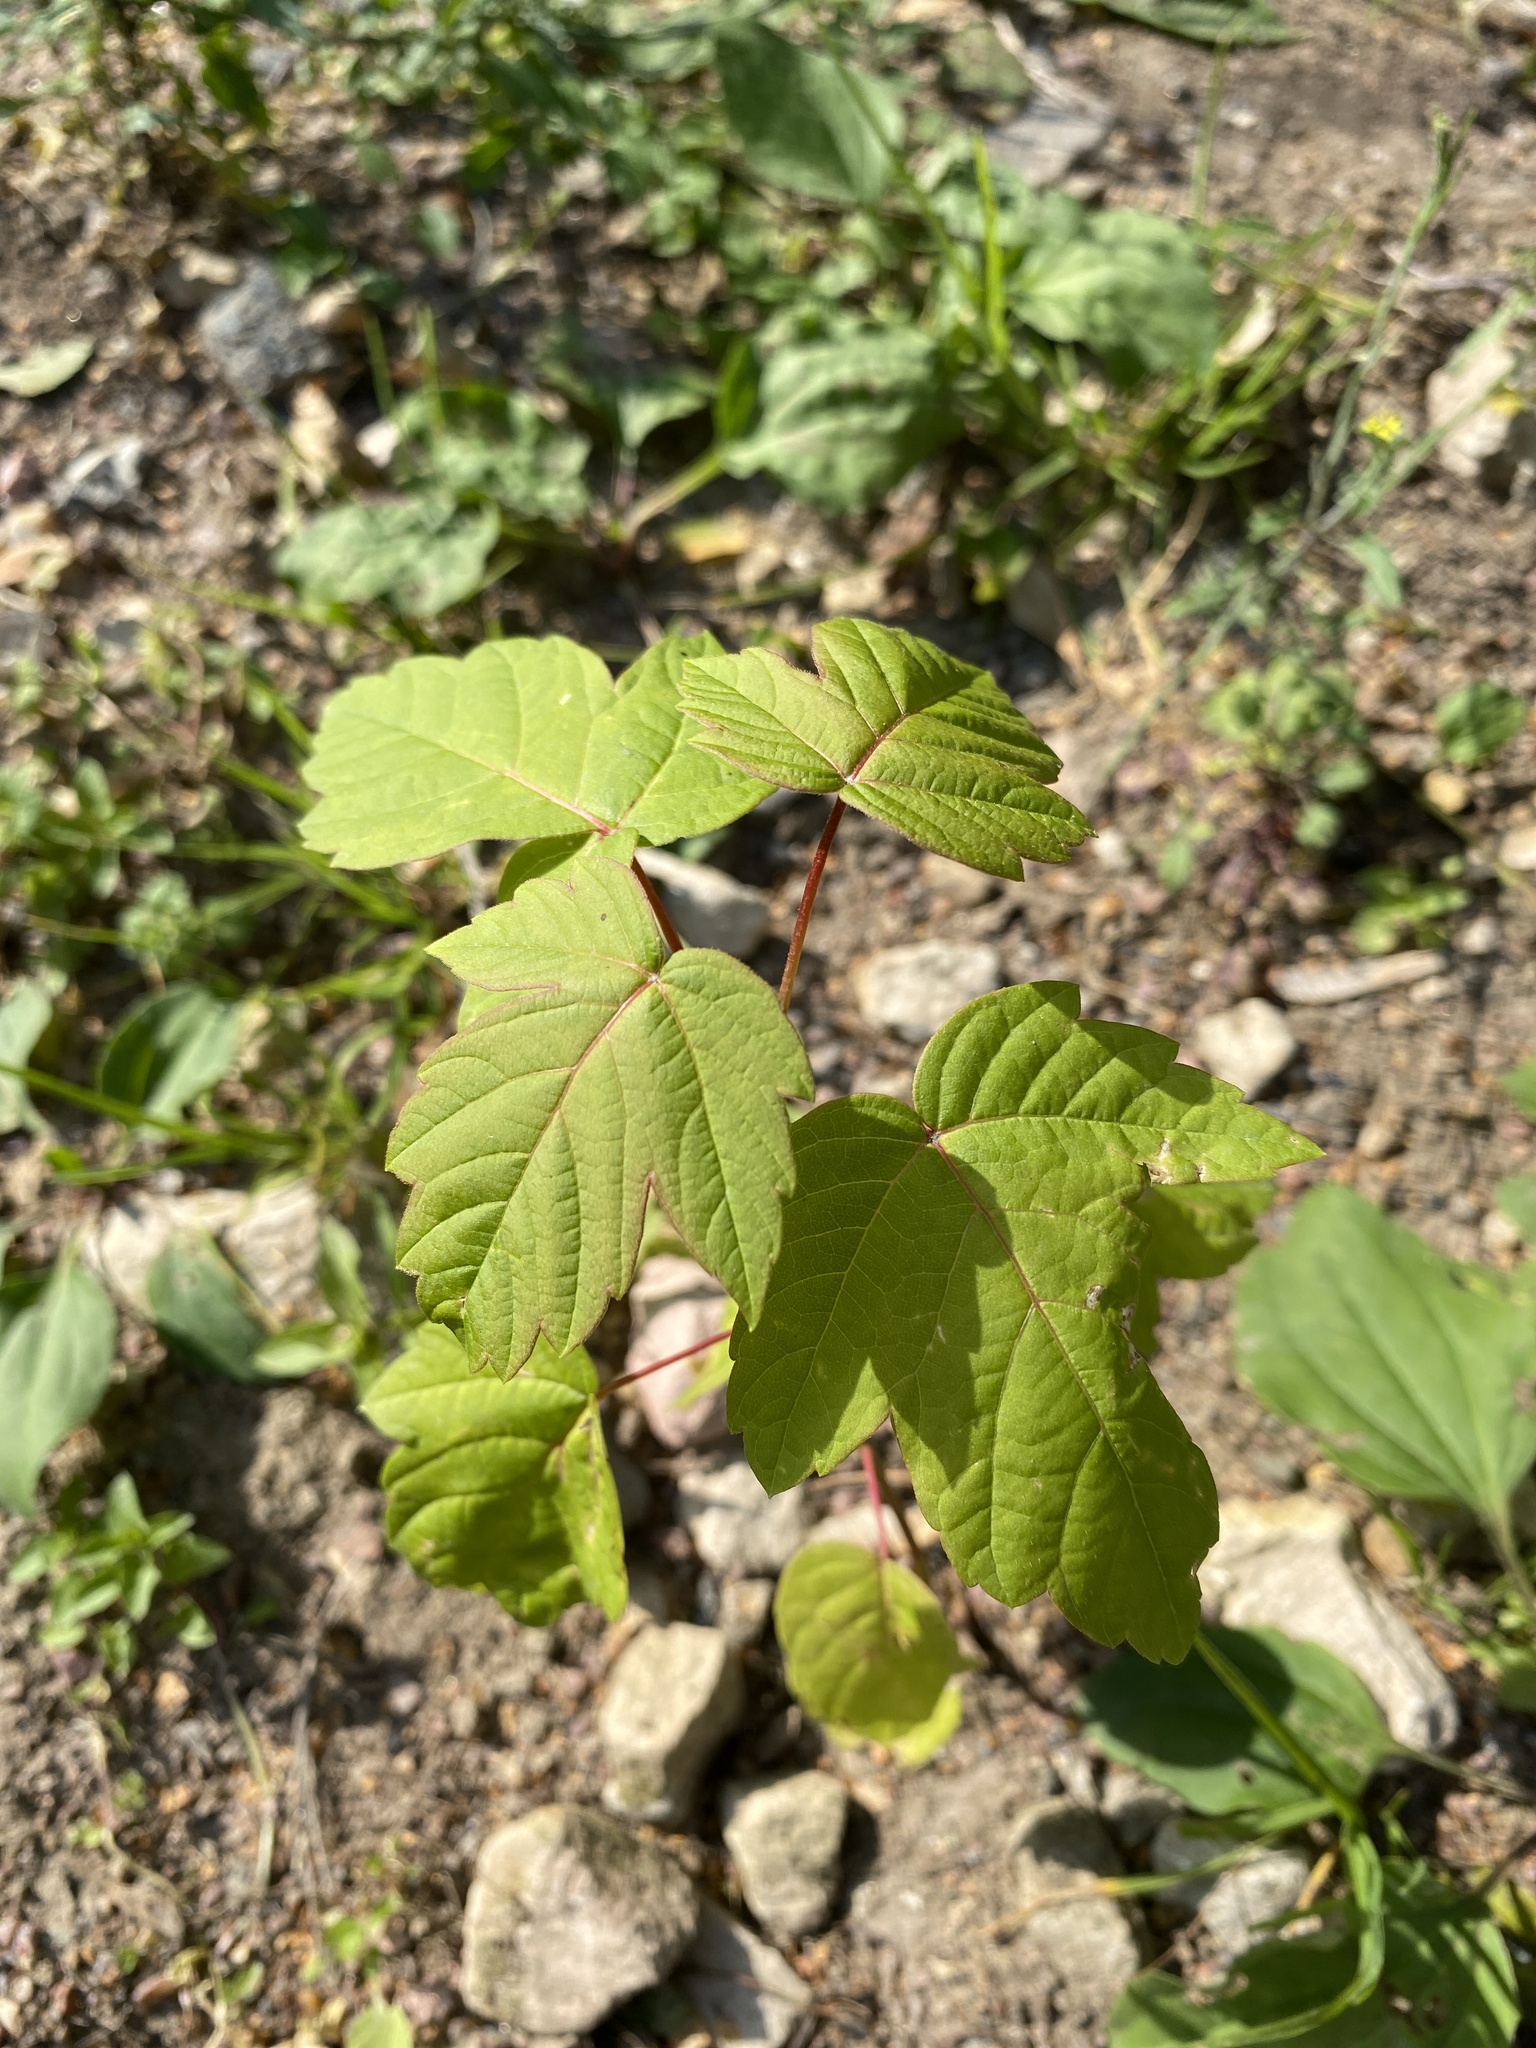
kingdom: Plantae
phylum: Tracheophyta
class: Magnoliopsida
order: Sapindales
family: Sapindaceae
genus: Acer
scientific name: Acer negundo
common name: Ashleaf maple
